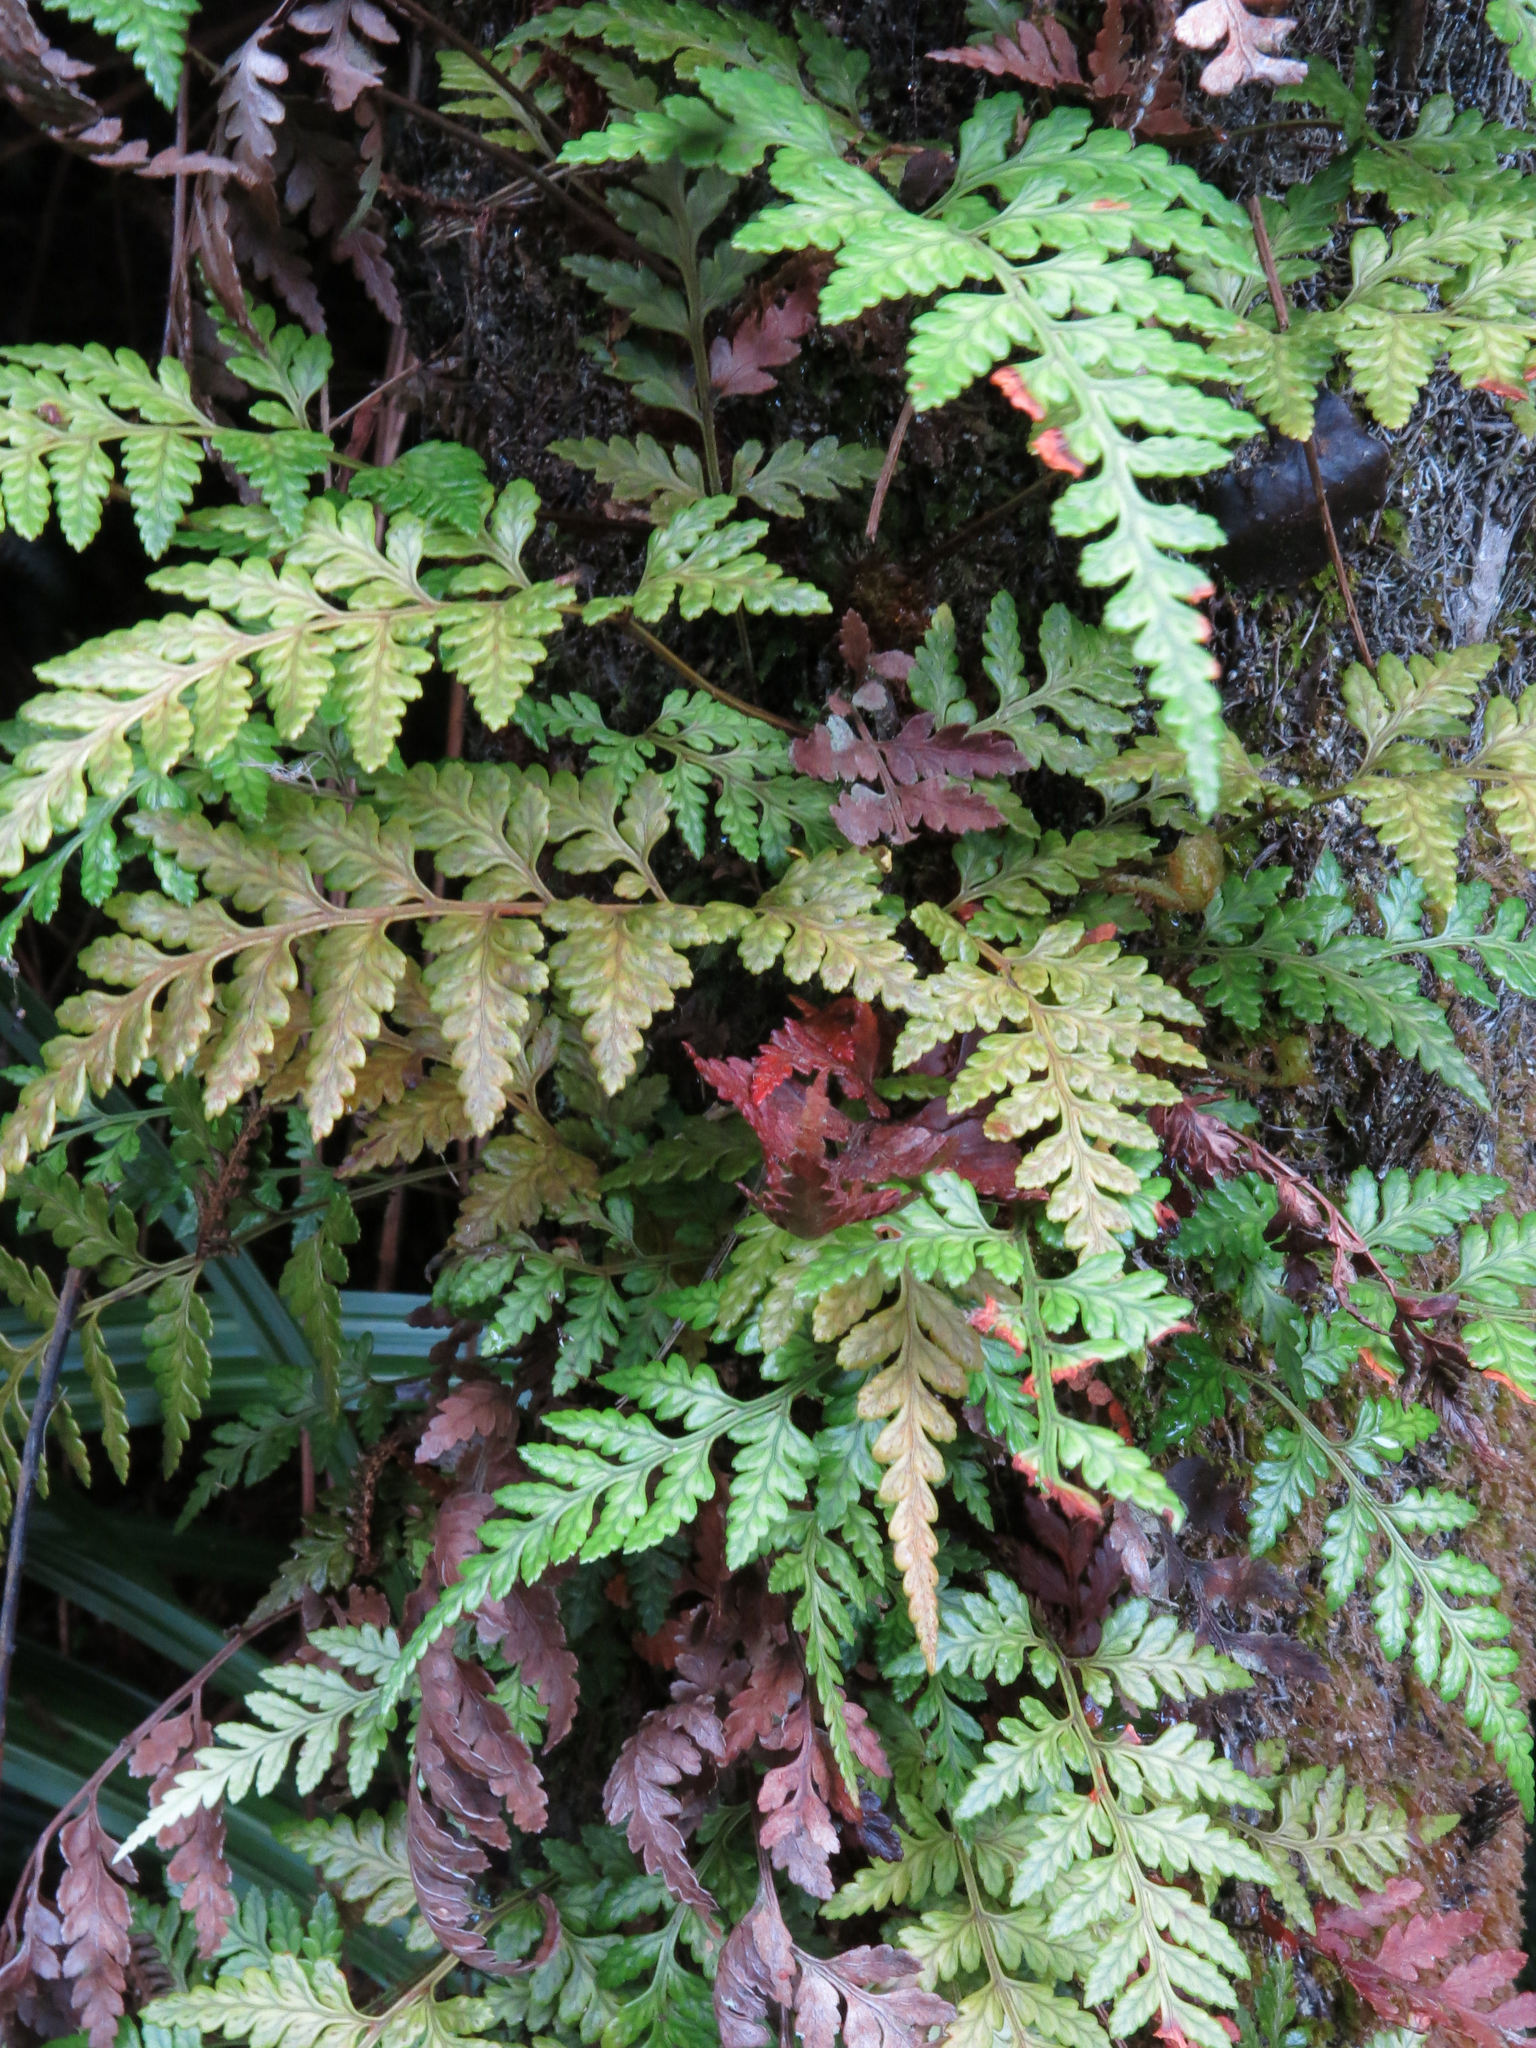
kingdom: Plantae
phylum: Tracheophyta
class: Polypodiopsida
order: Polypodiales
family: Dryopteridaceae
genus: Rumohra
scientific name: Rumohra adiantiformis
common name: Leather fern
